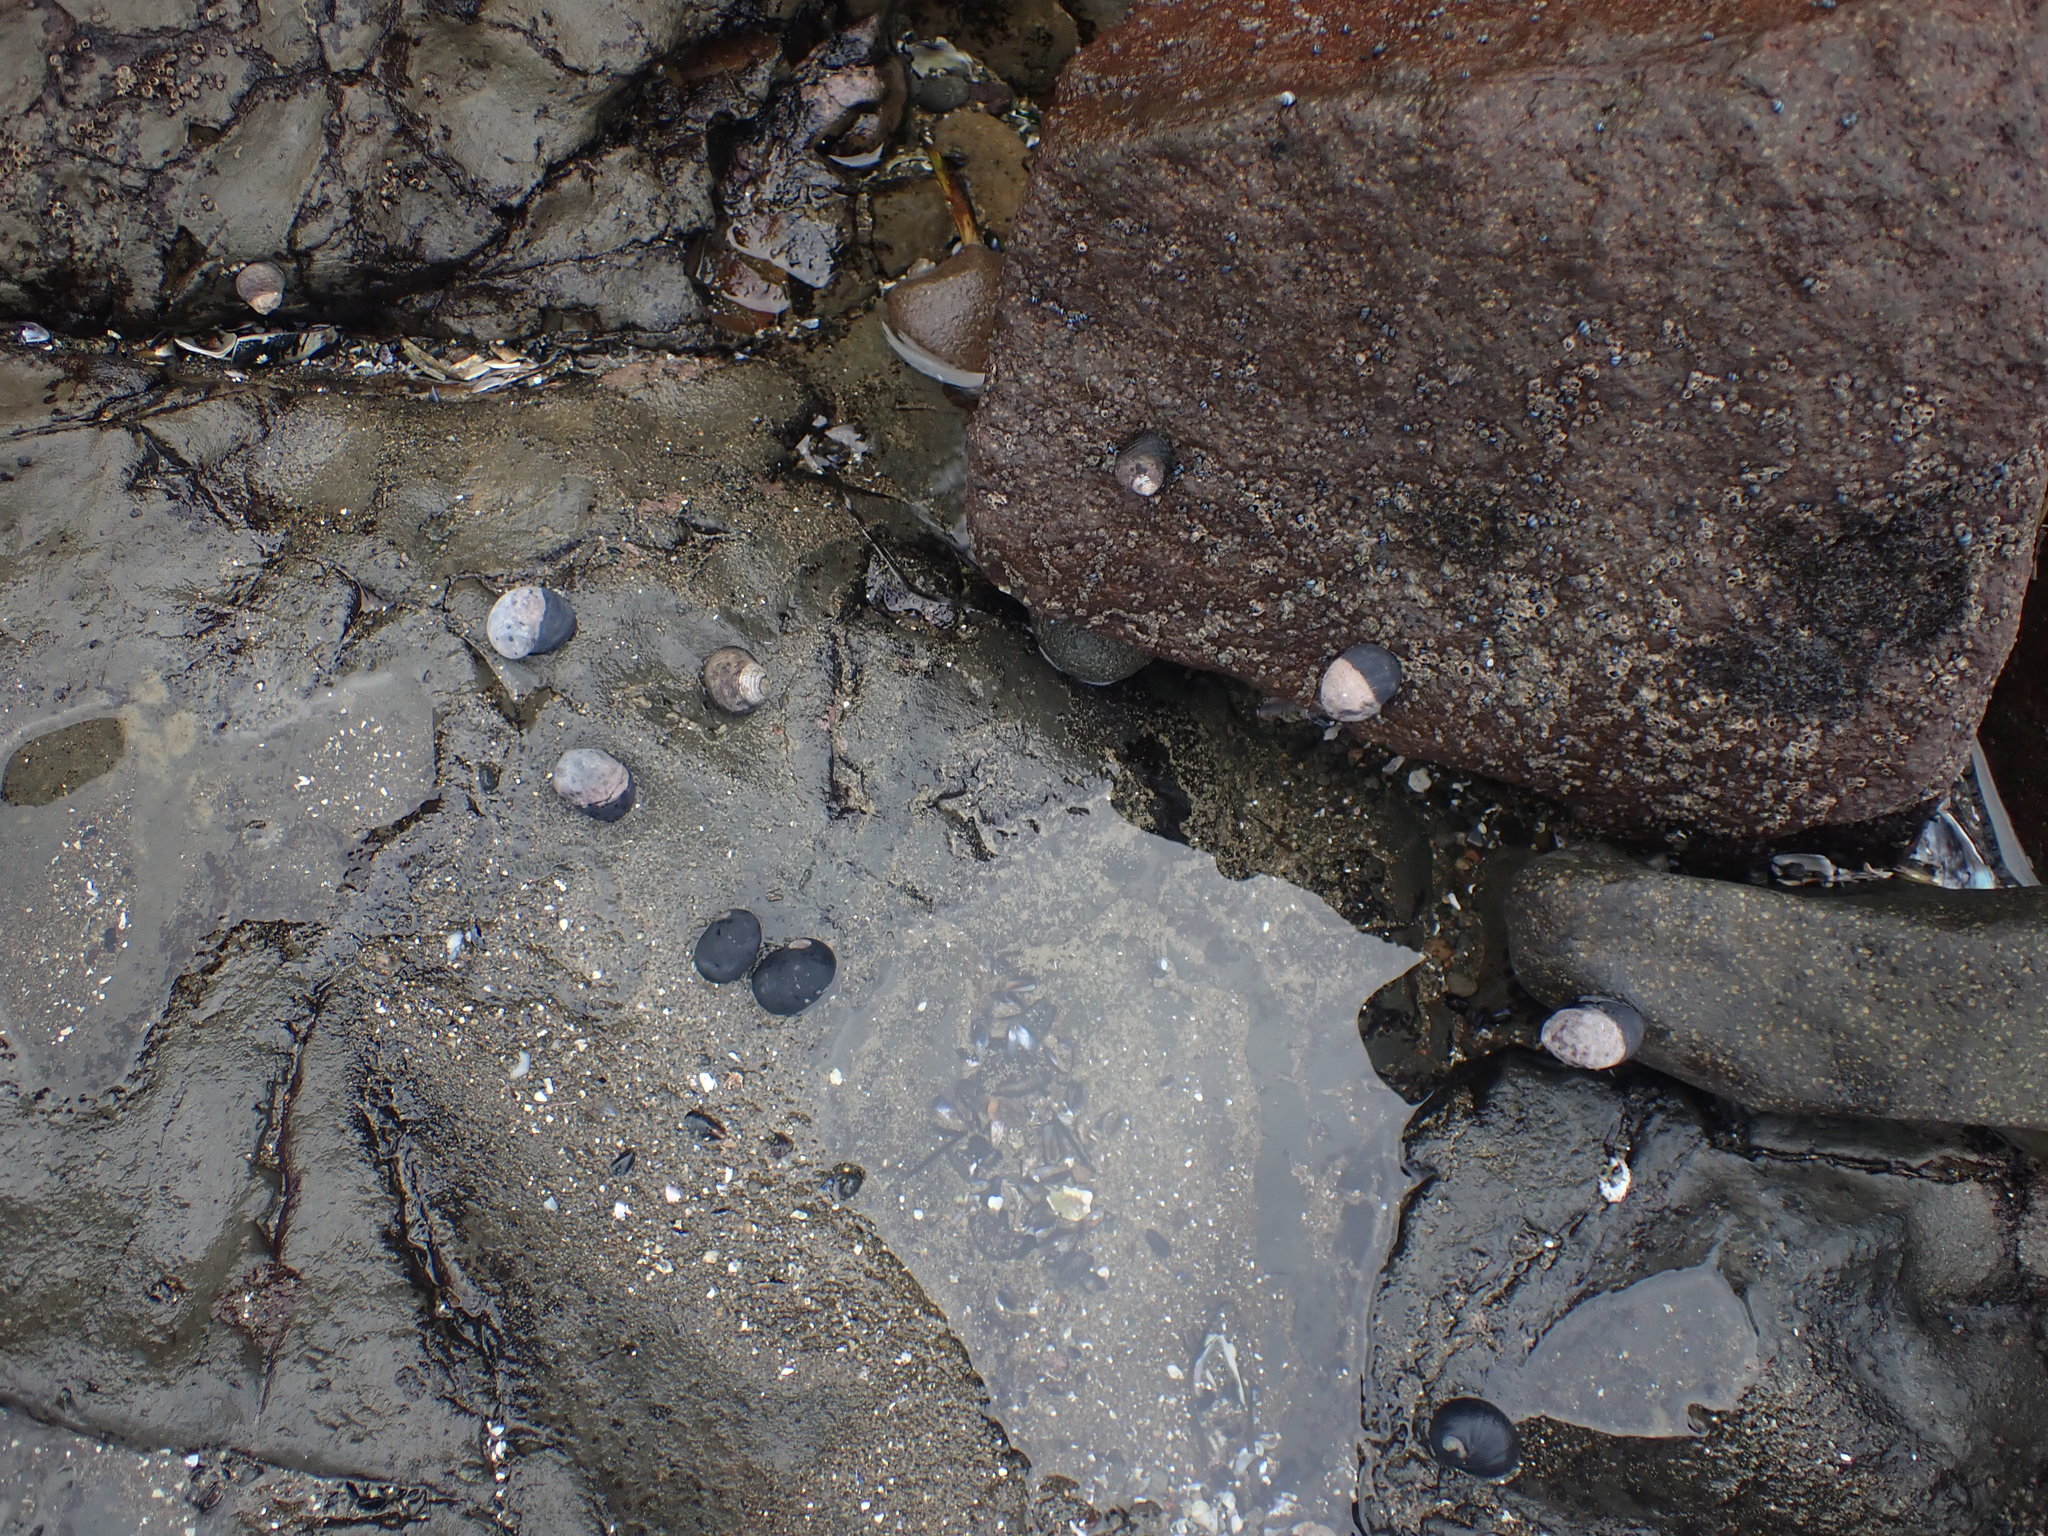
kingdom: Animalia
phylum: Mollusca
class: Gastropoda
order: Cycloneritida
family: Neritidae
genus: Nerita
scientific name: Nerita melanotragus
